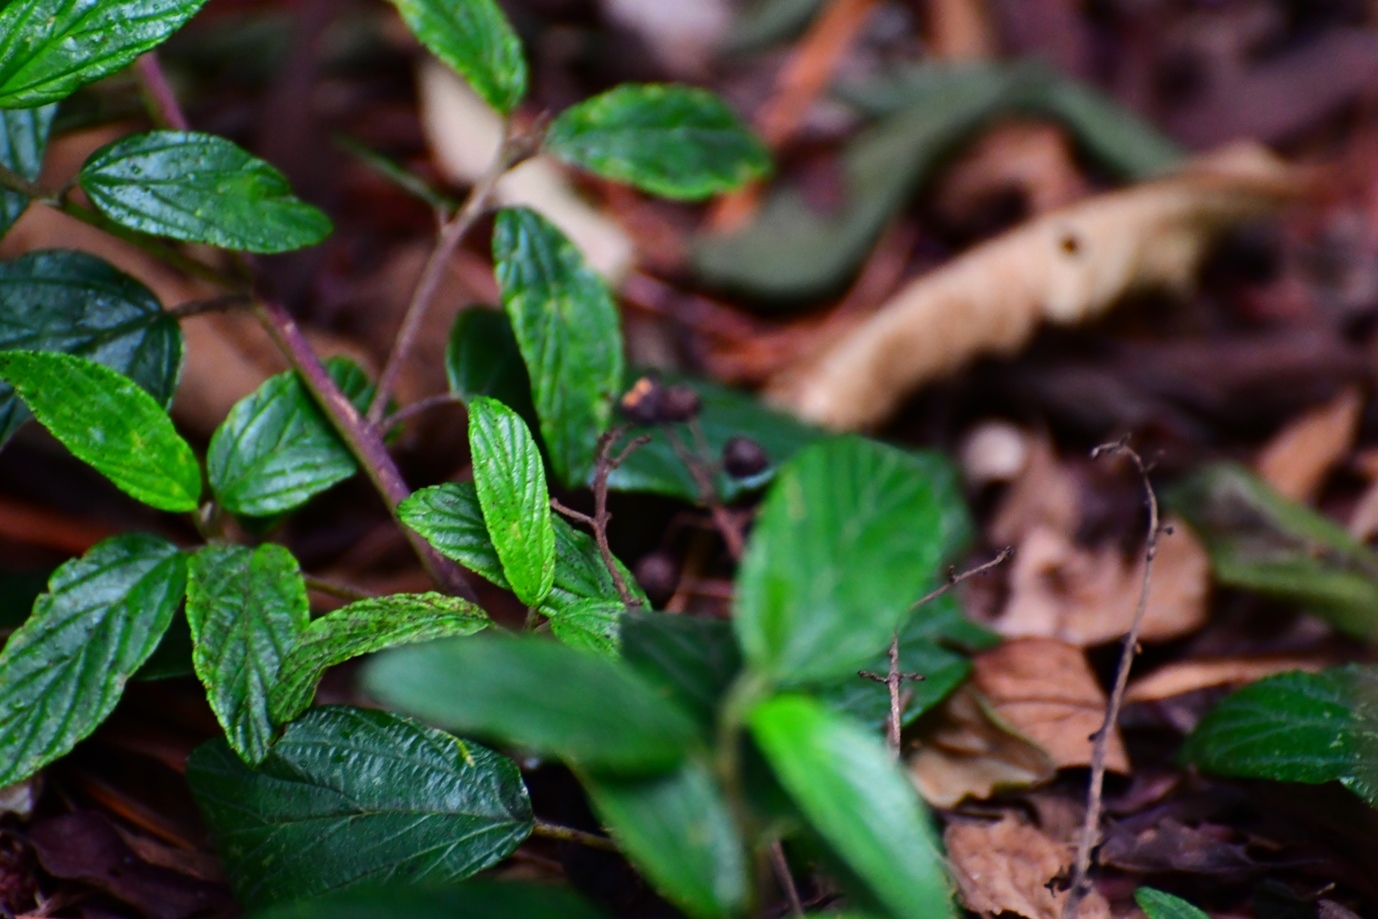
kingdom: Plantae
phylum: Tracheophyta
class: Magnoliopsida
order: Rosales
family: Rhamnaceae
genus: Ceanothus
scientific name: Ceanothus caeruleus
